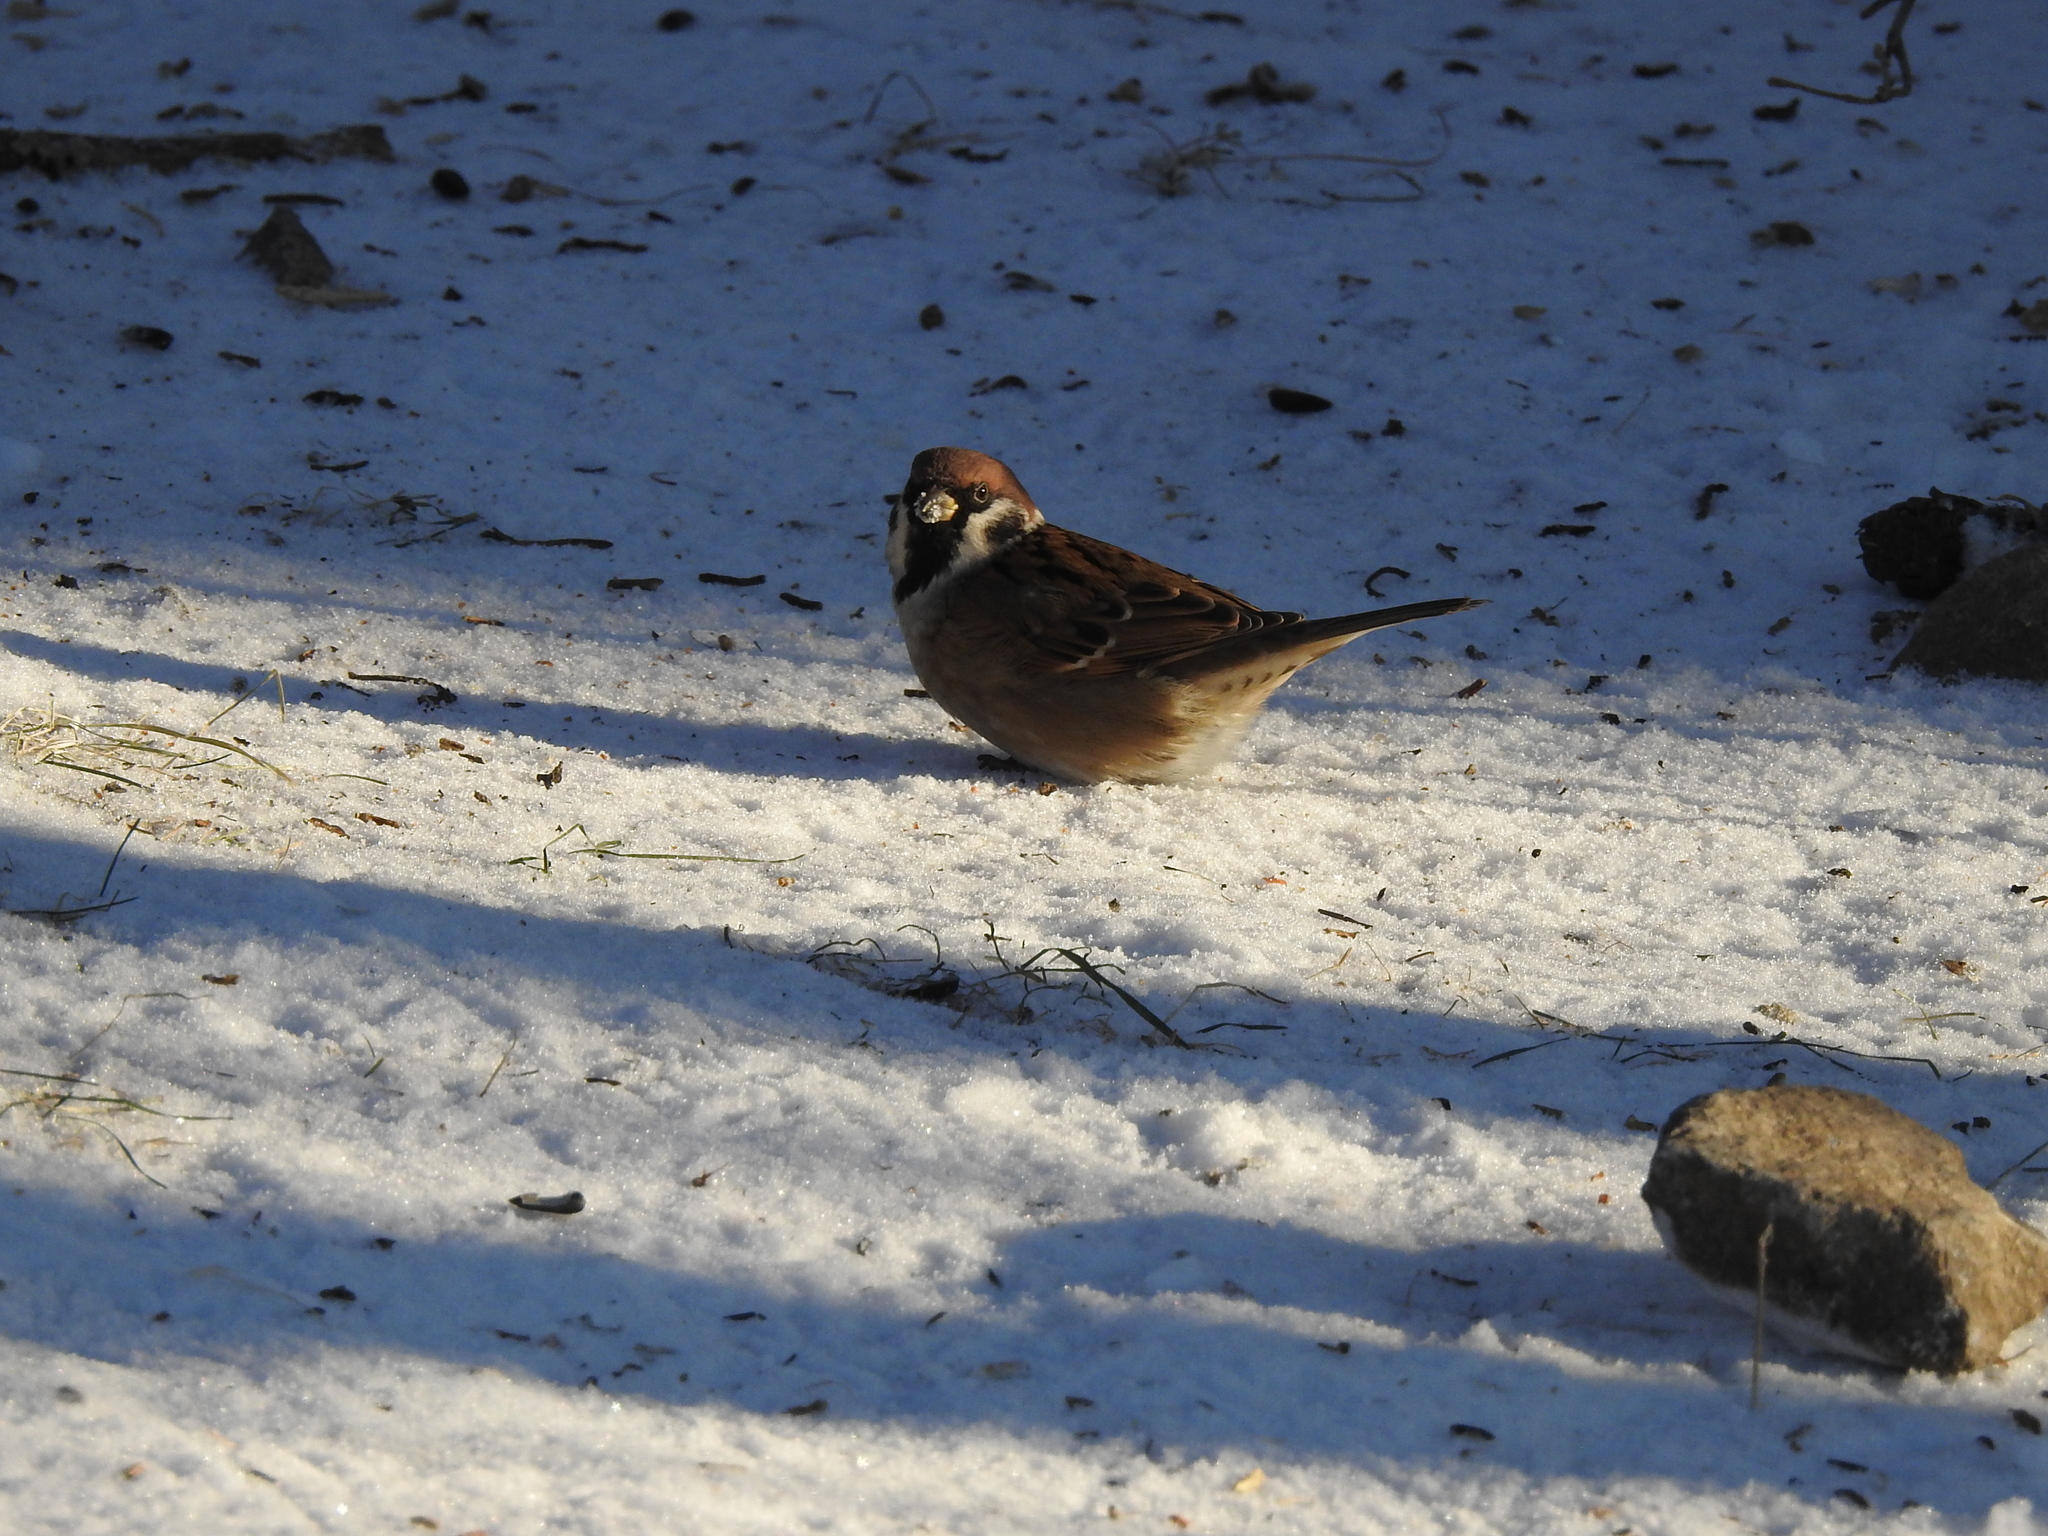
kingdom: Animalia
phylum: Chordata
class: Aves
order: Passeriformes
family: Passeridae
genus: Passer
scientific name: Passer montanus
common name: Eurasian tree sparrow
